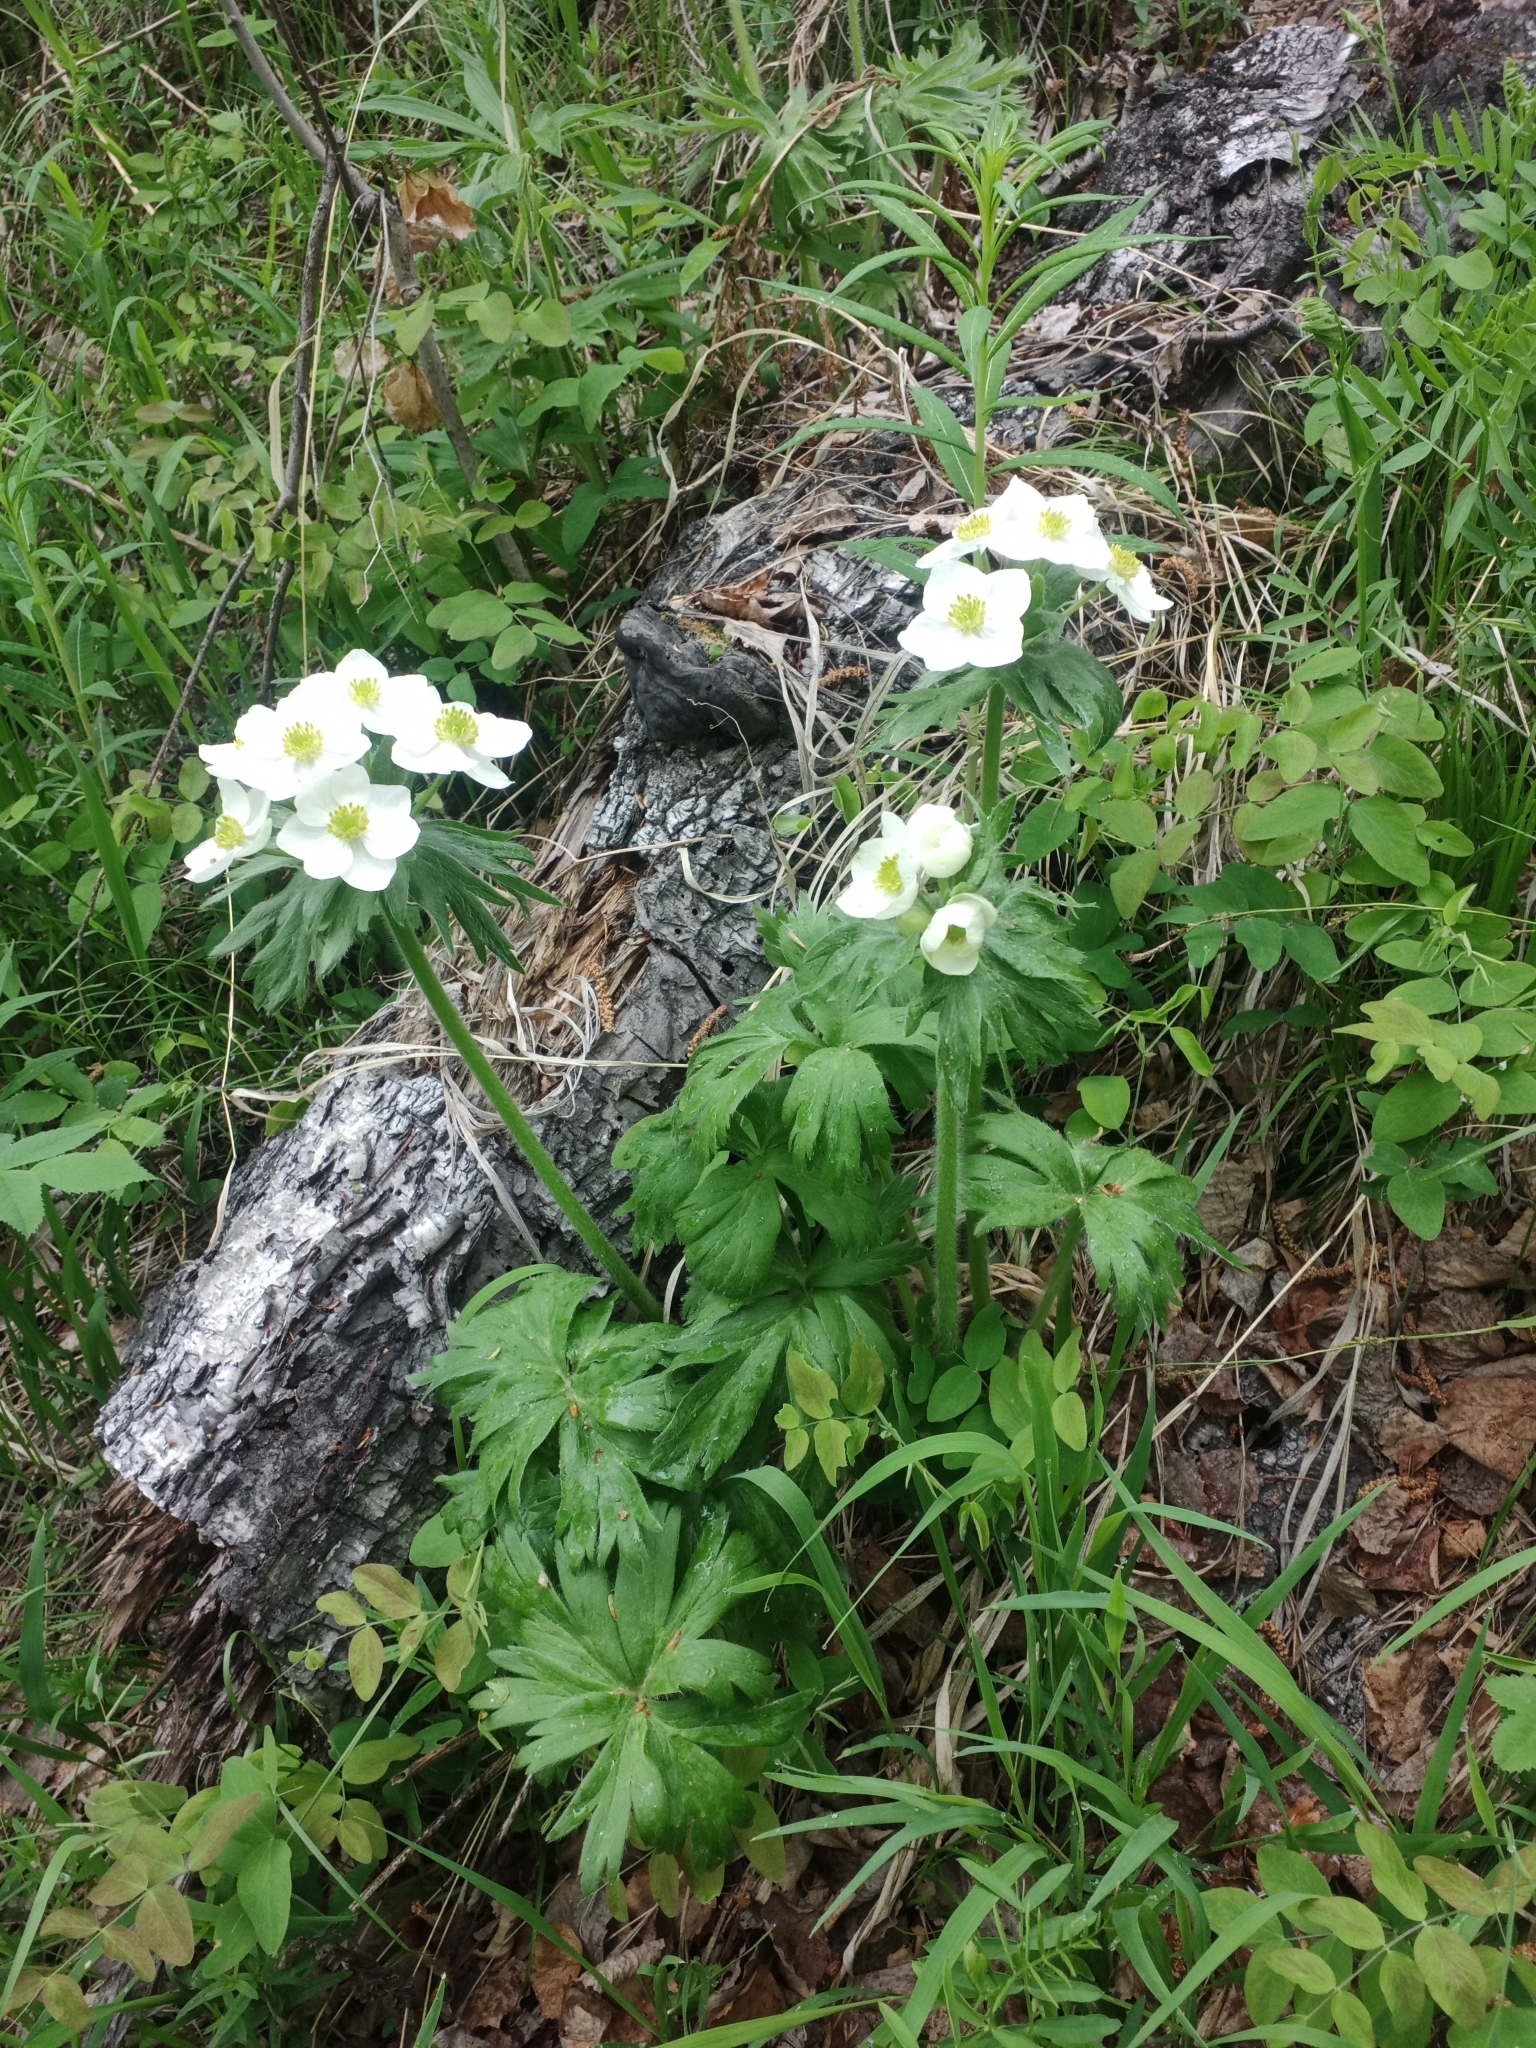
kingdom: Plantae
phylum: Tracheophyta
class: Magnoliopsida
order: Ranunculales
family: Ranunculaceae
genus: Anemonastrum
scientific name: Anemonastrum narcissiflorum
